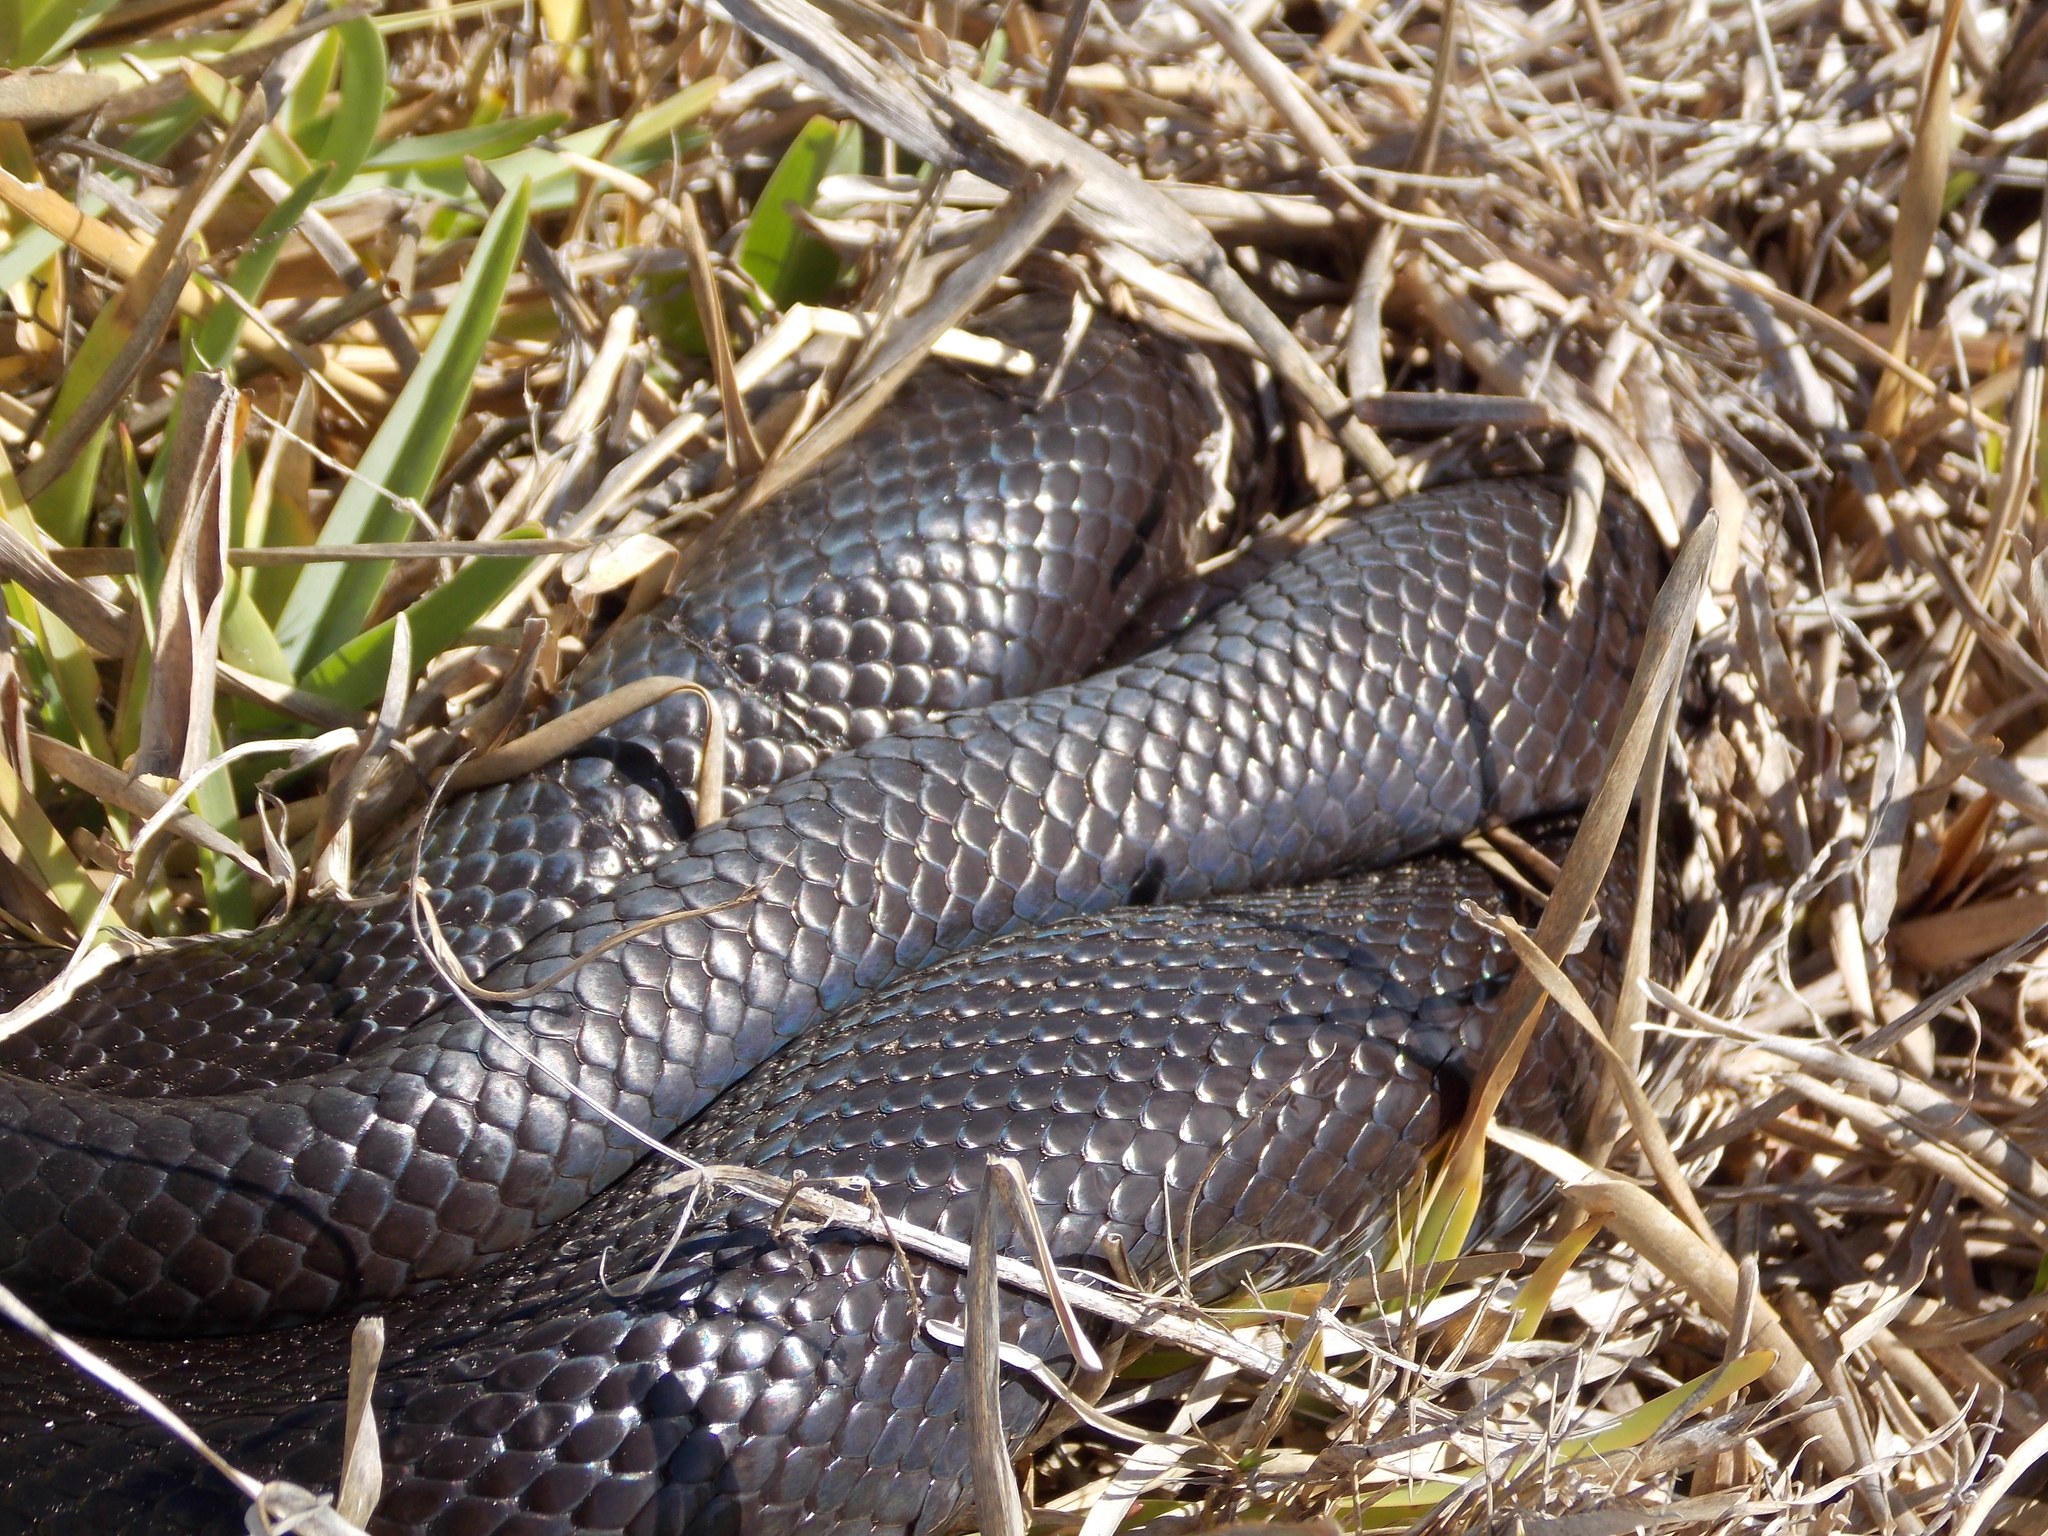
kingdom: Animalia
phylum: Chordata
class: Squamata
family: Pseudaspididae
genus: Pseudaspis
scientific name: Pseudaspis cana
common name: Mole snake
